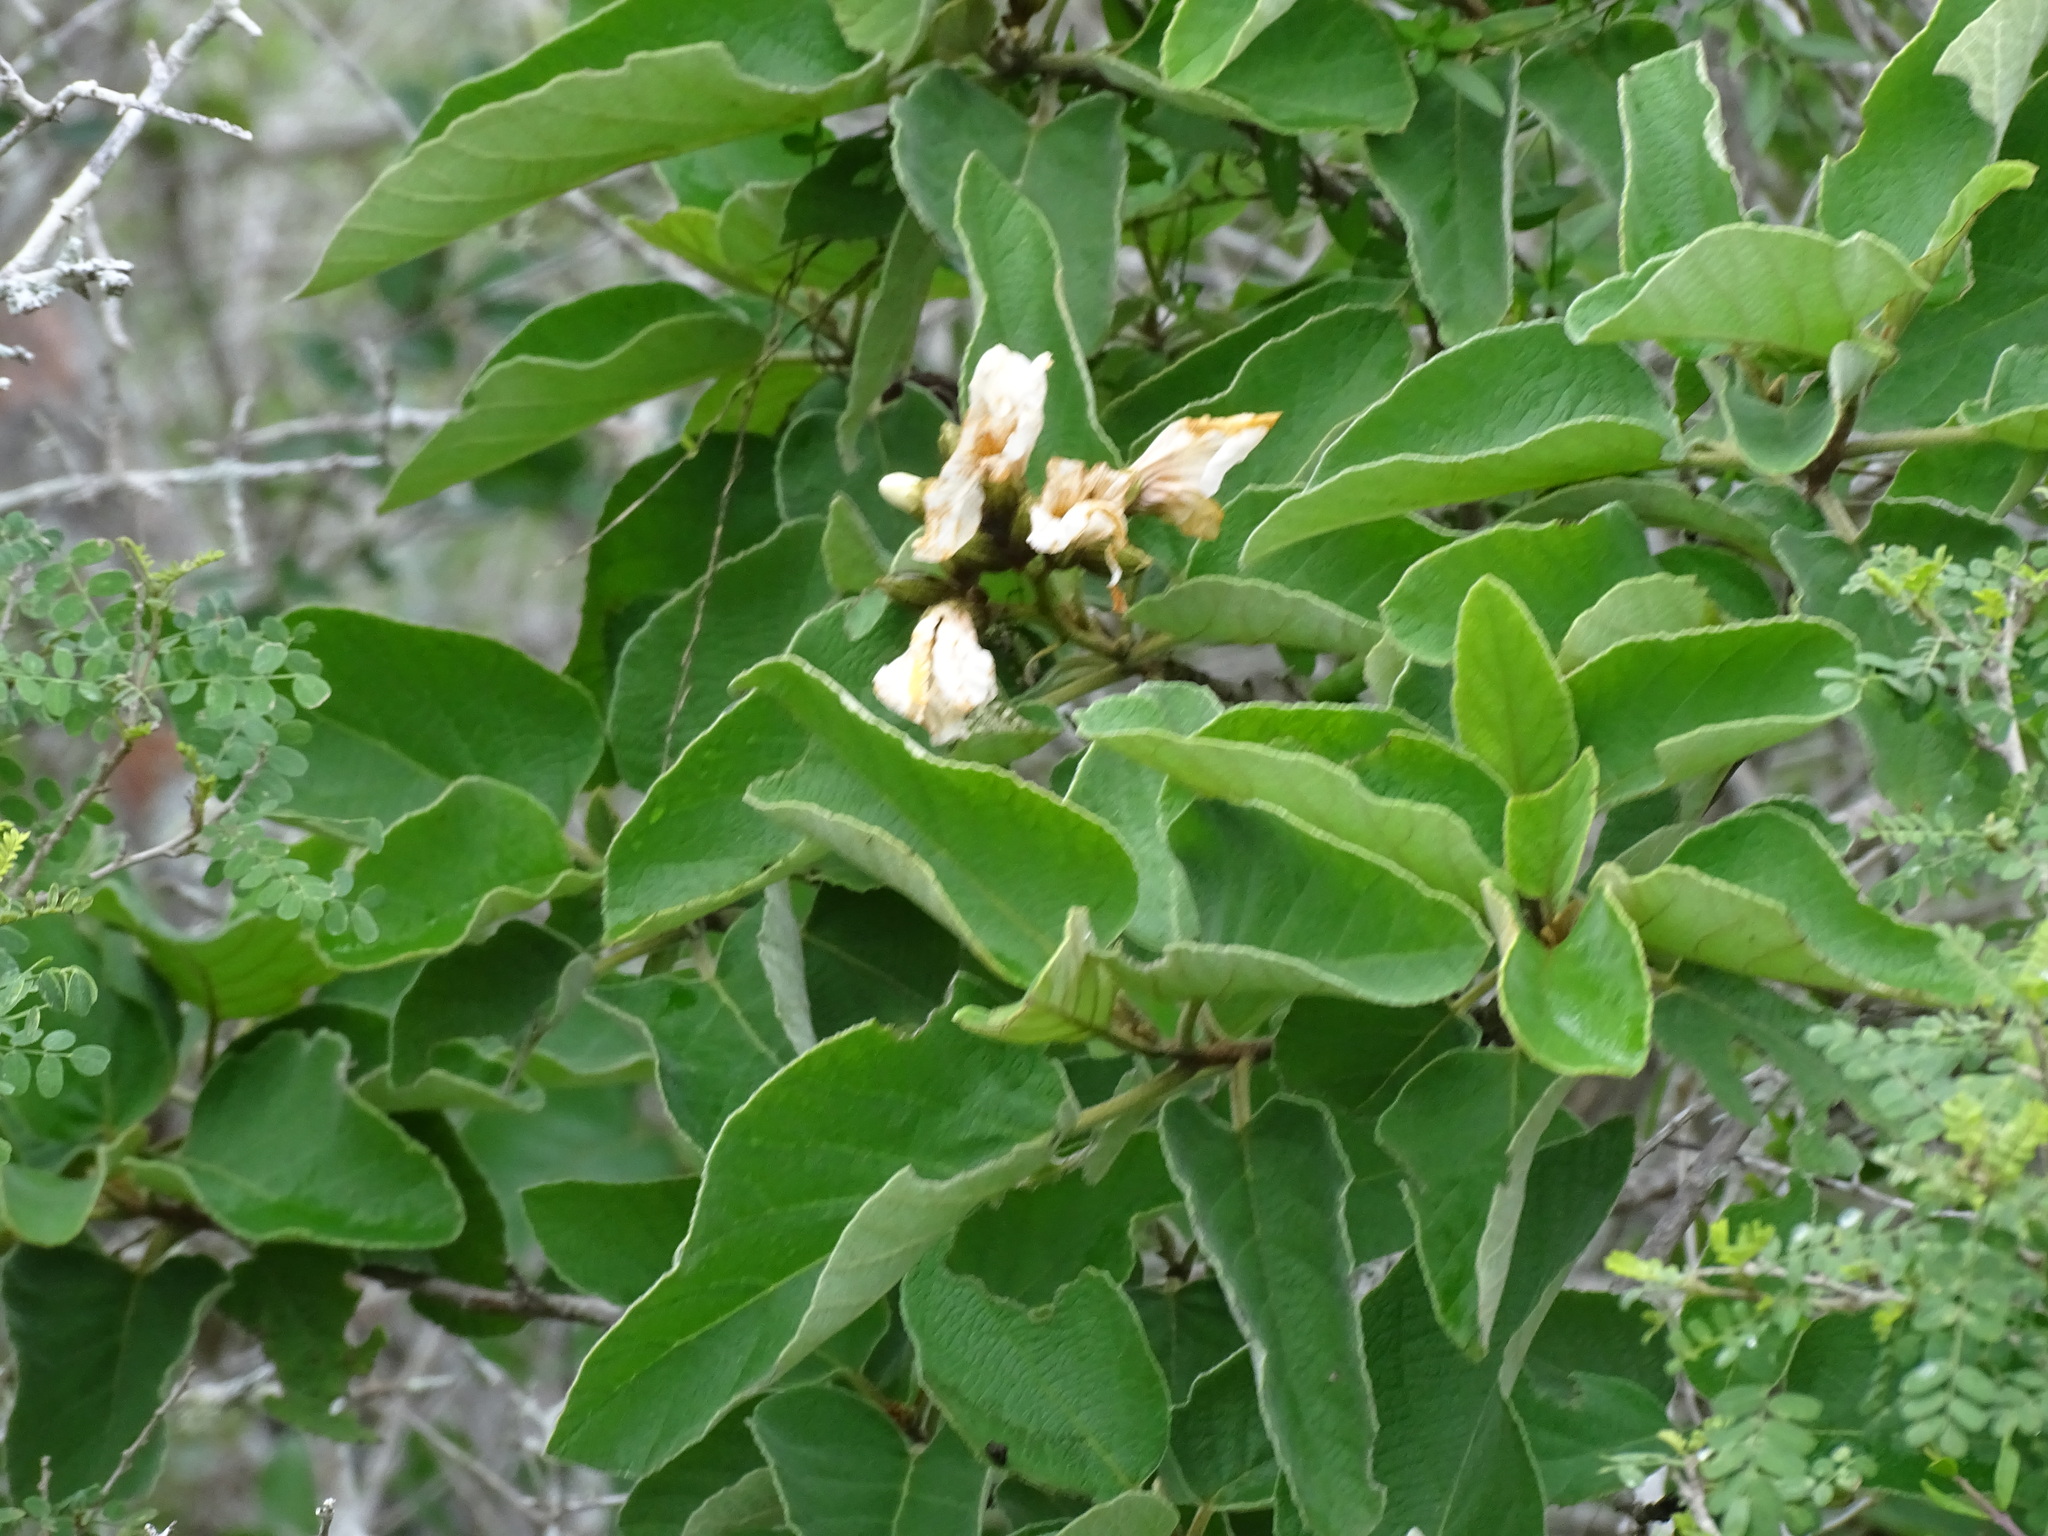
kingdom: Plantae
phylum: Tracheophyta
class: Magnoliopsida
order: Boraginales
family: Cordiaceae
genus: Cordia
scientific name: Cordia boissieri
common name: Mexican-olive
